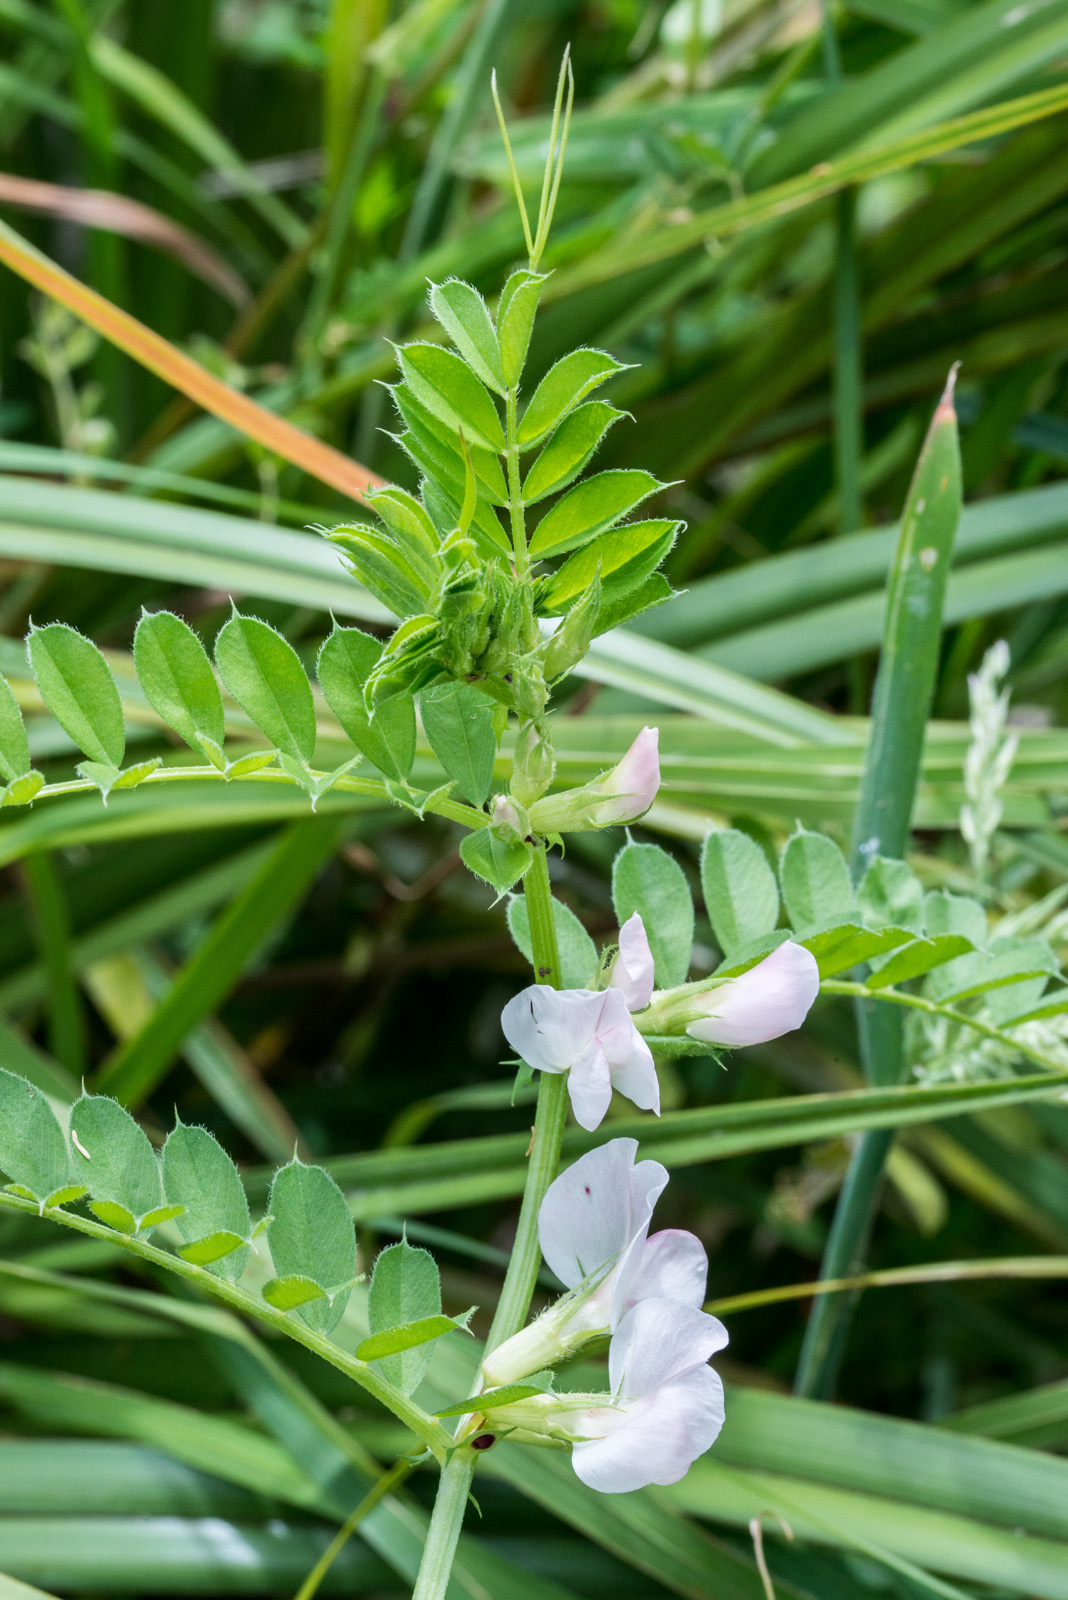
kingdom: Plantae
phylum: Tracheophyta
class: Magnoliopsida
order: Fabales
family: Fabaceae
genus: Vicia
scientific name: Vicia sativa
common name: Garden vetch
